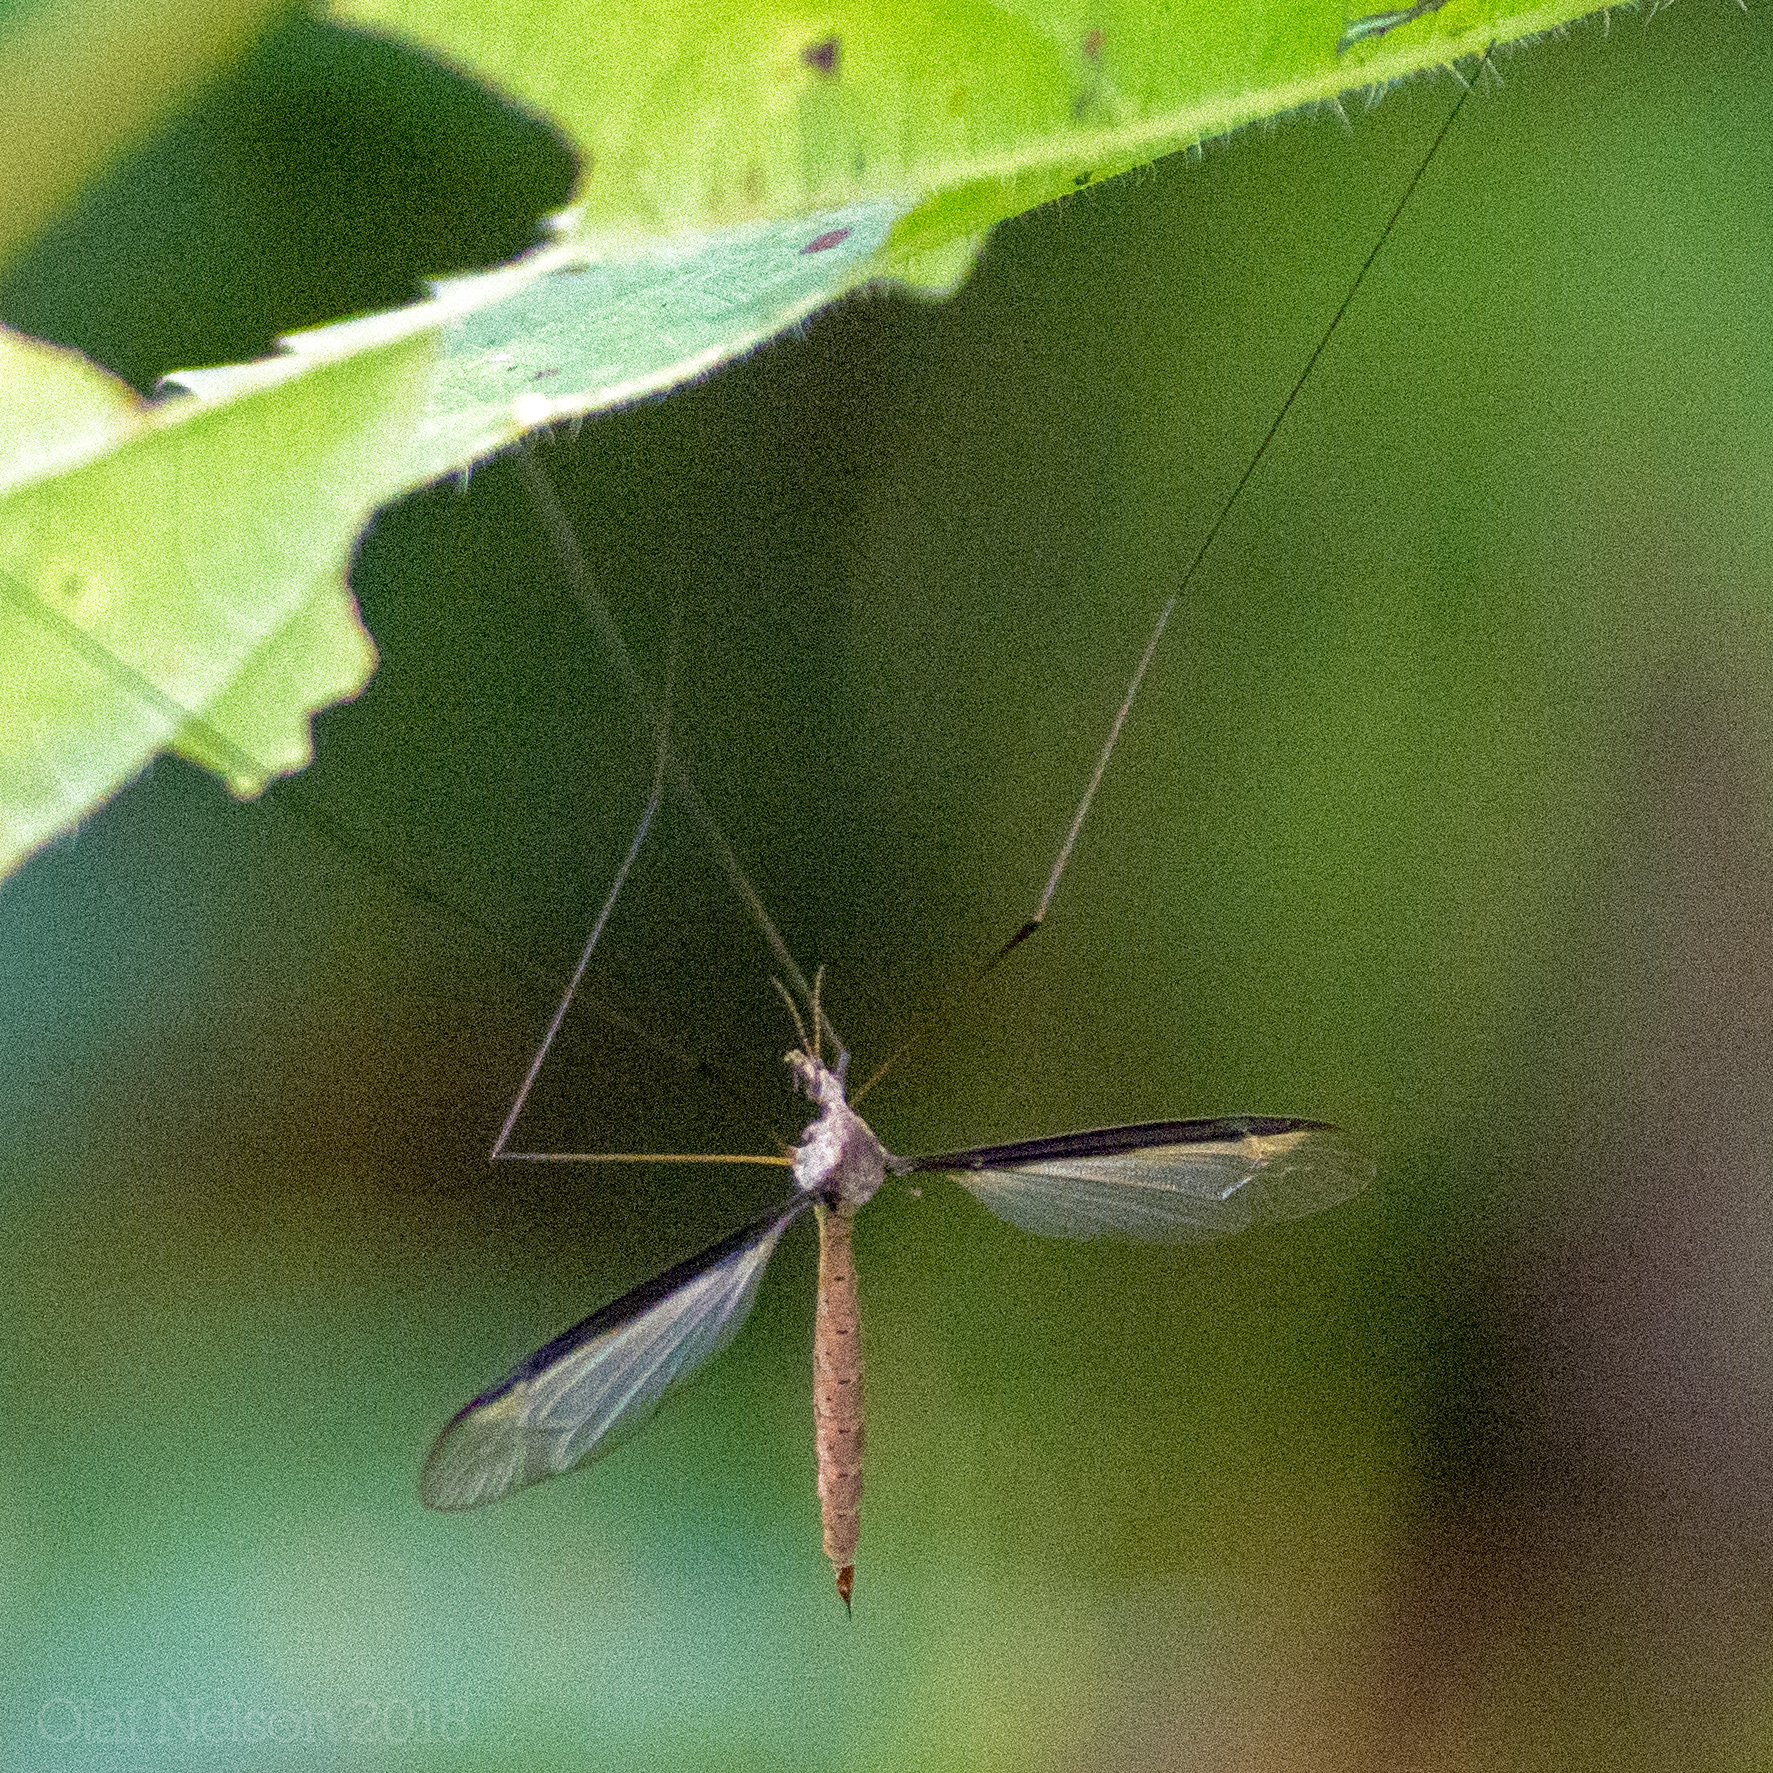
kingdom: Animalia
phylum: Arthropoda
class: Insecta
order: Diptera
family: Tipulidae
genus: Tipula
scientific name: Tipula sayi
